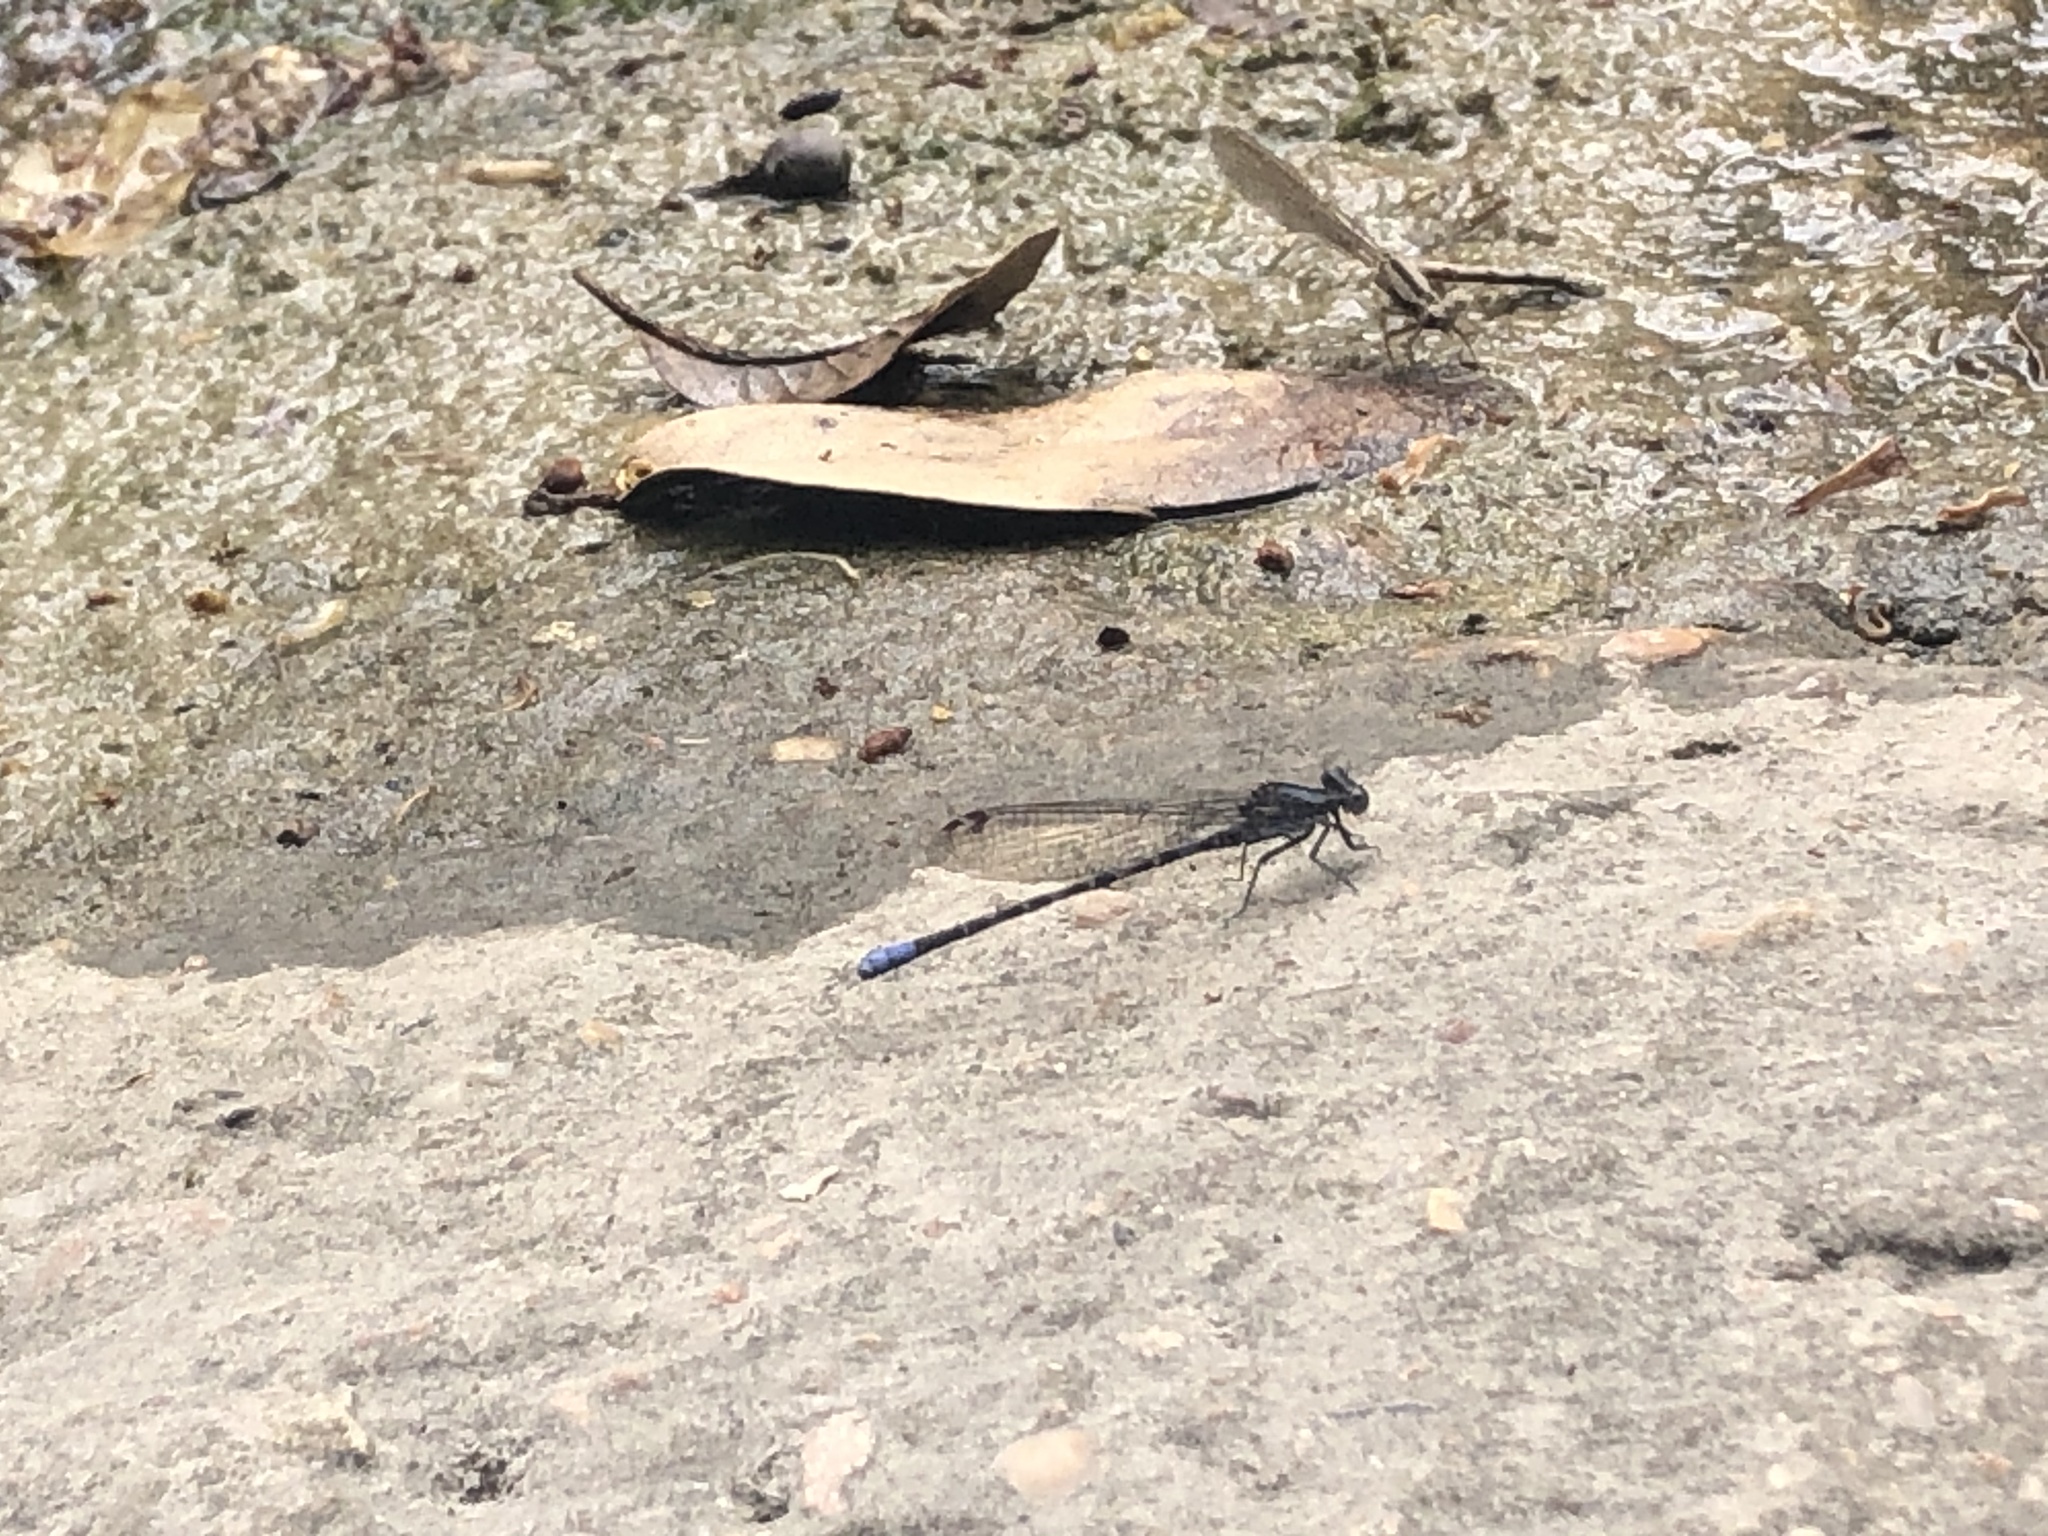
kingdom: Animalia
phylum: Arthropoda
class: Insecta
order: Odonata
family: Coenagrionidae
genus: Argia
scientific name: Argia immunda
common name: Kiowa dancer
